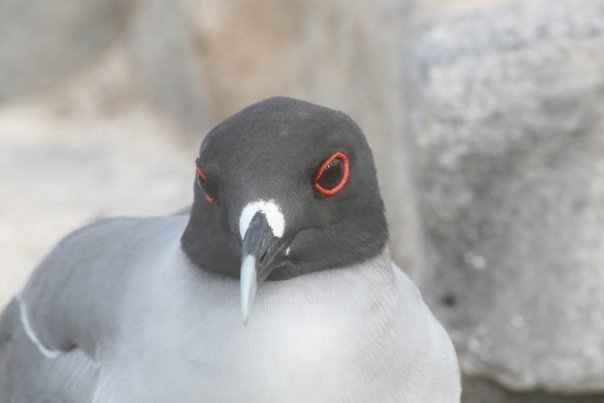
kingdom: Animalia
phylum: Chordata
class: Aves
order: Charadriiformes
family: Laridae
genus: Creagrus
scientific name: Creagrus furcatus
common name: Swallow-tailed gull
